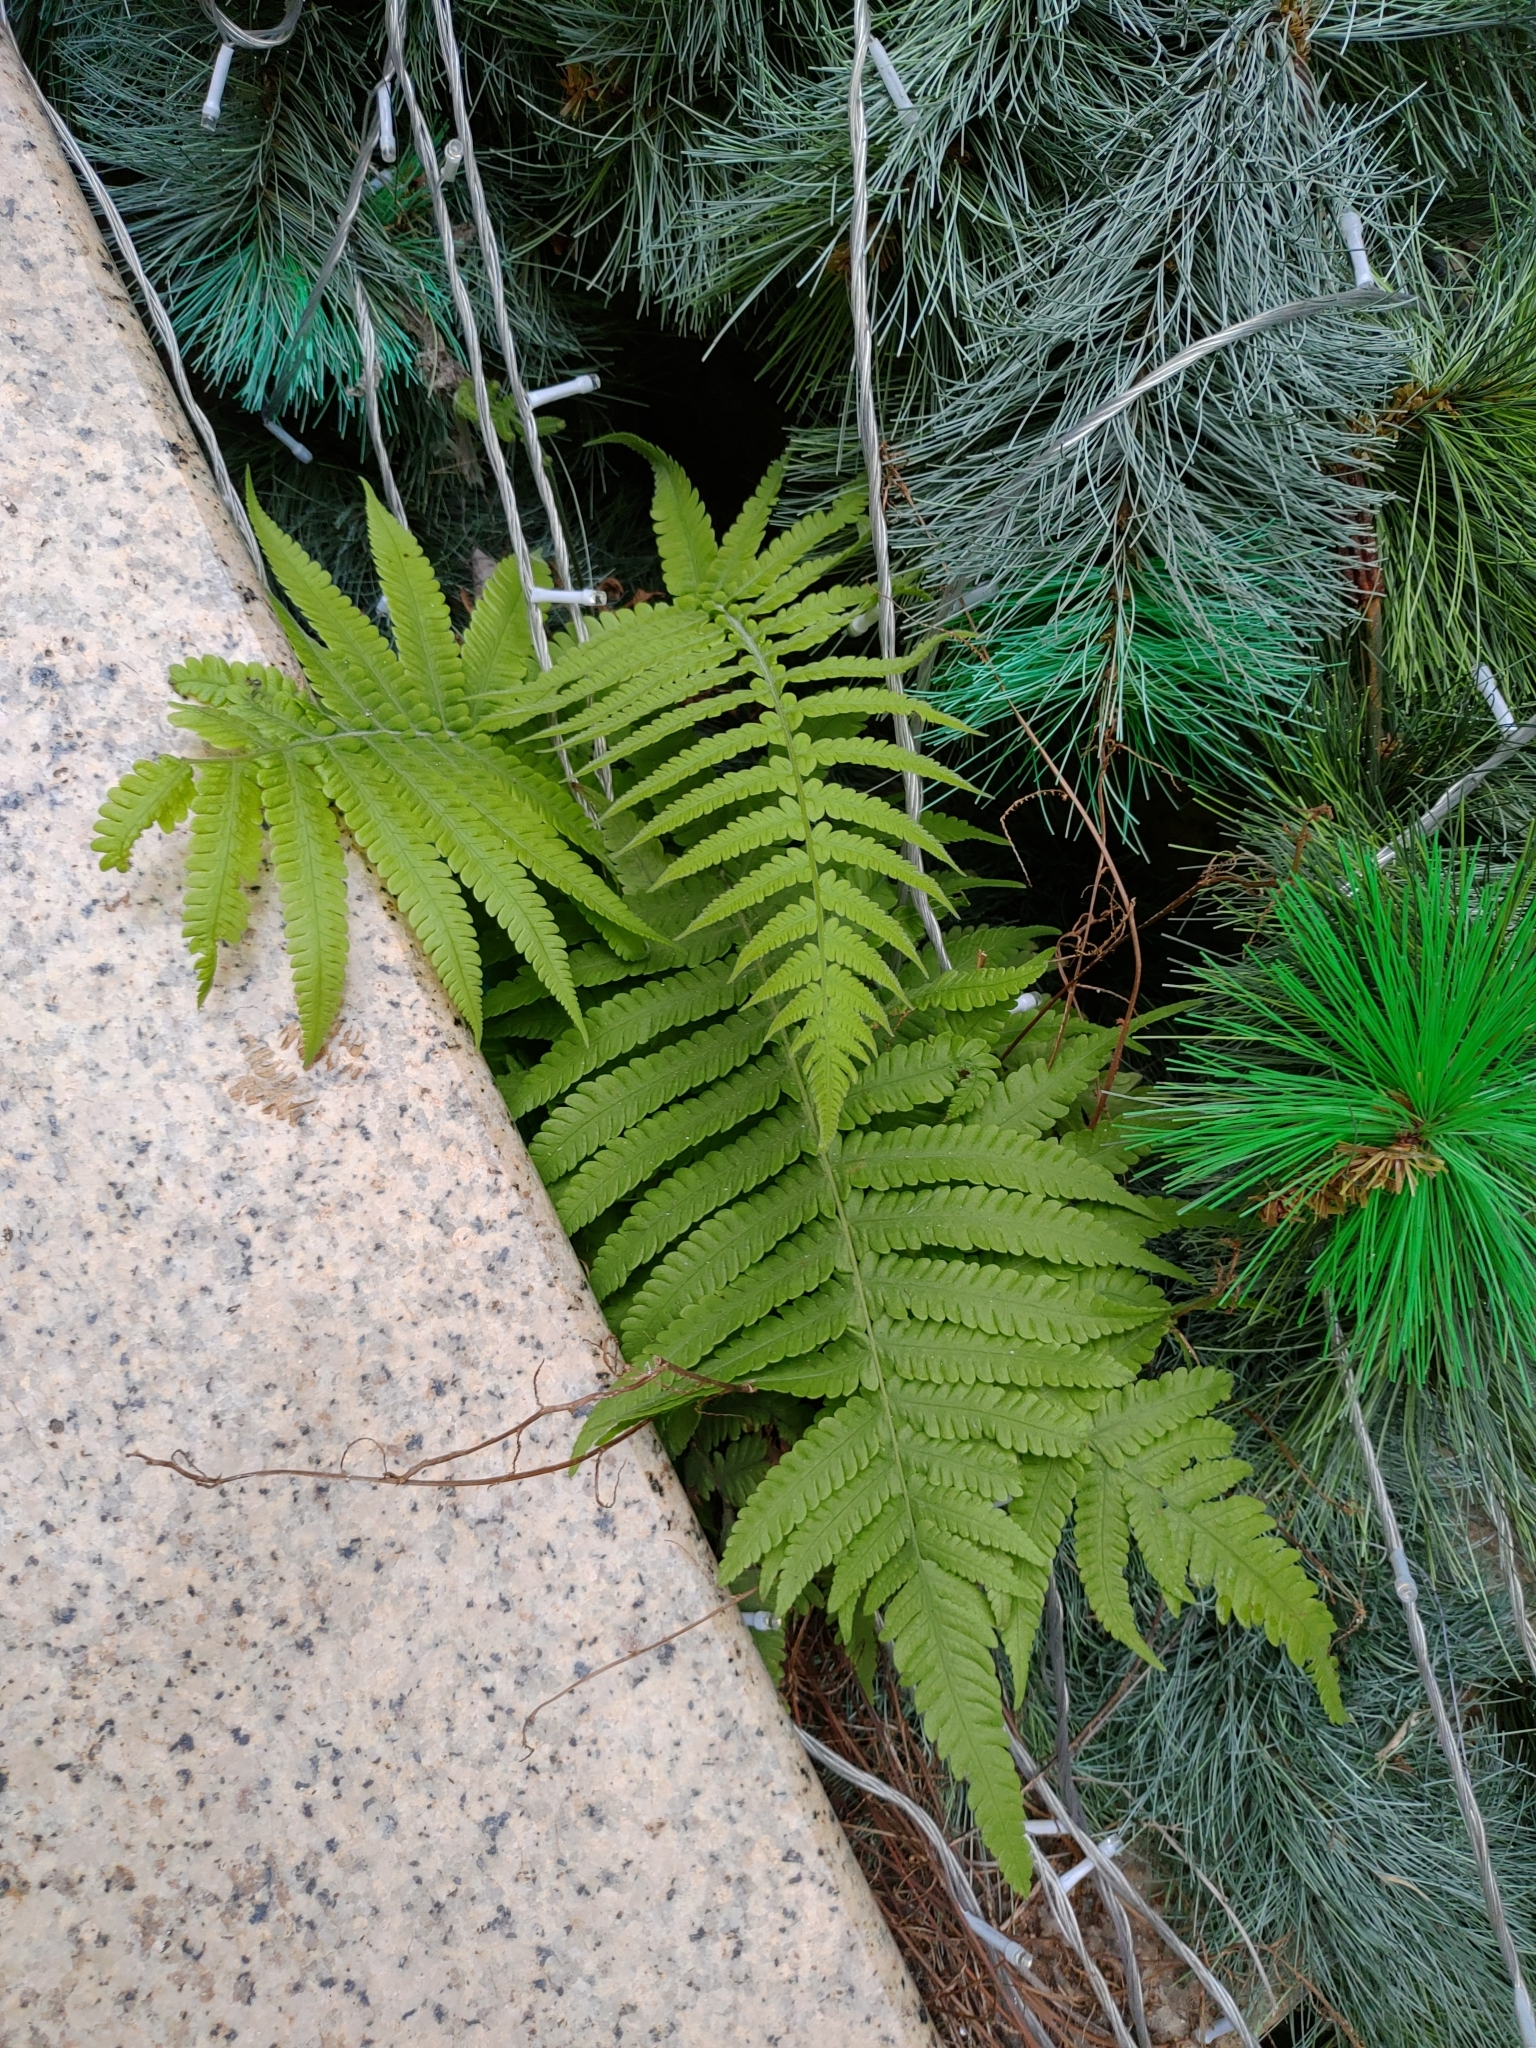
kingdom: Plantae
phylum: Tracheophyta
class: Polypodiopsida
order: Polypodiales
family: Thelypteridaceae
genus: Christella
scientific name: Christella parasitica
